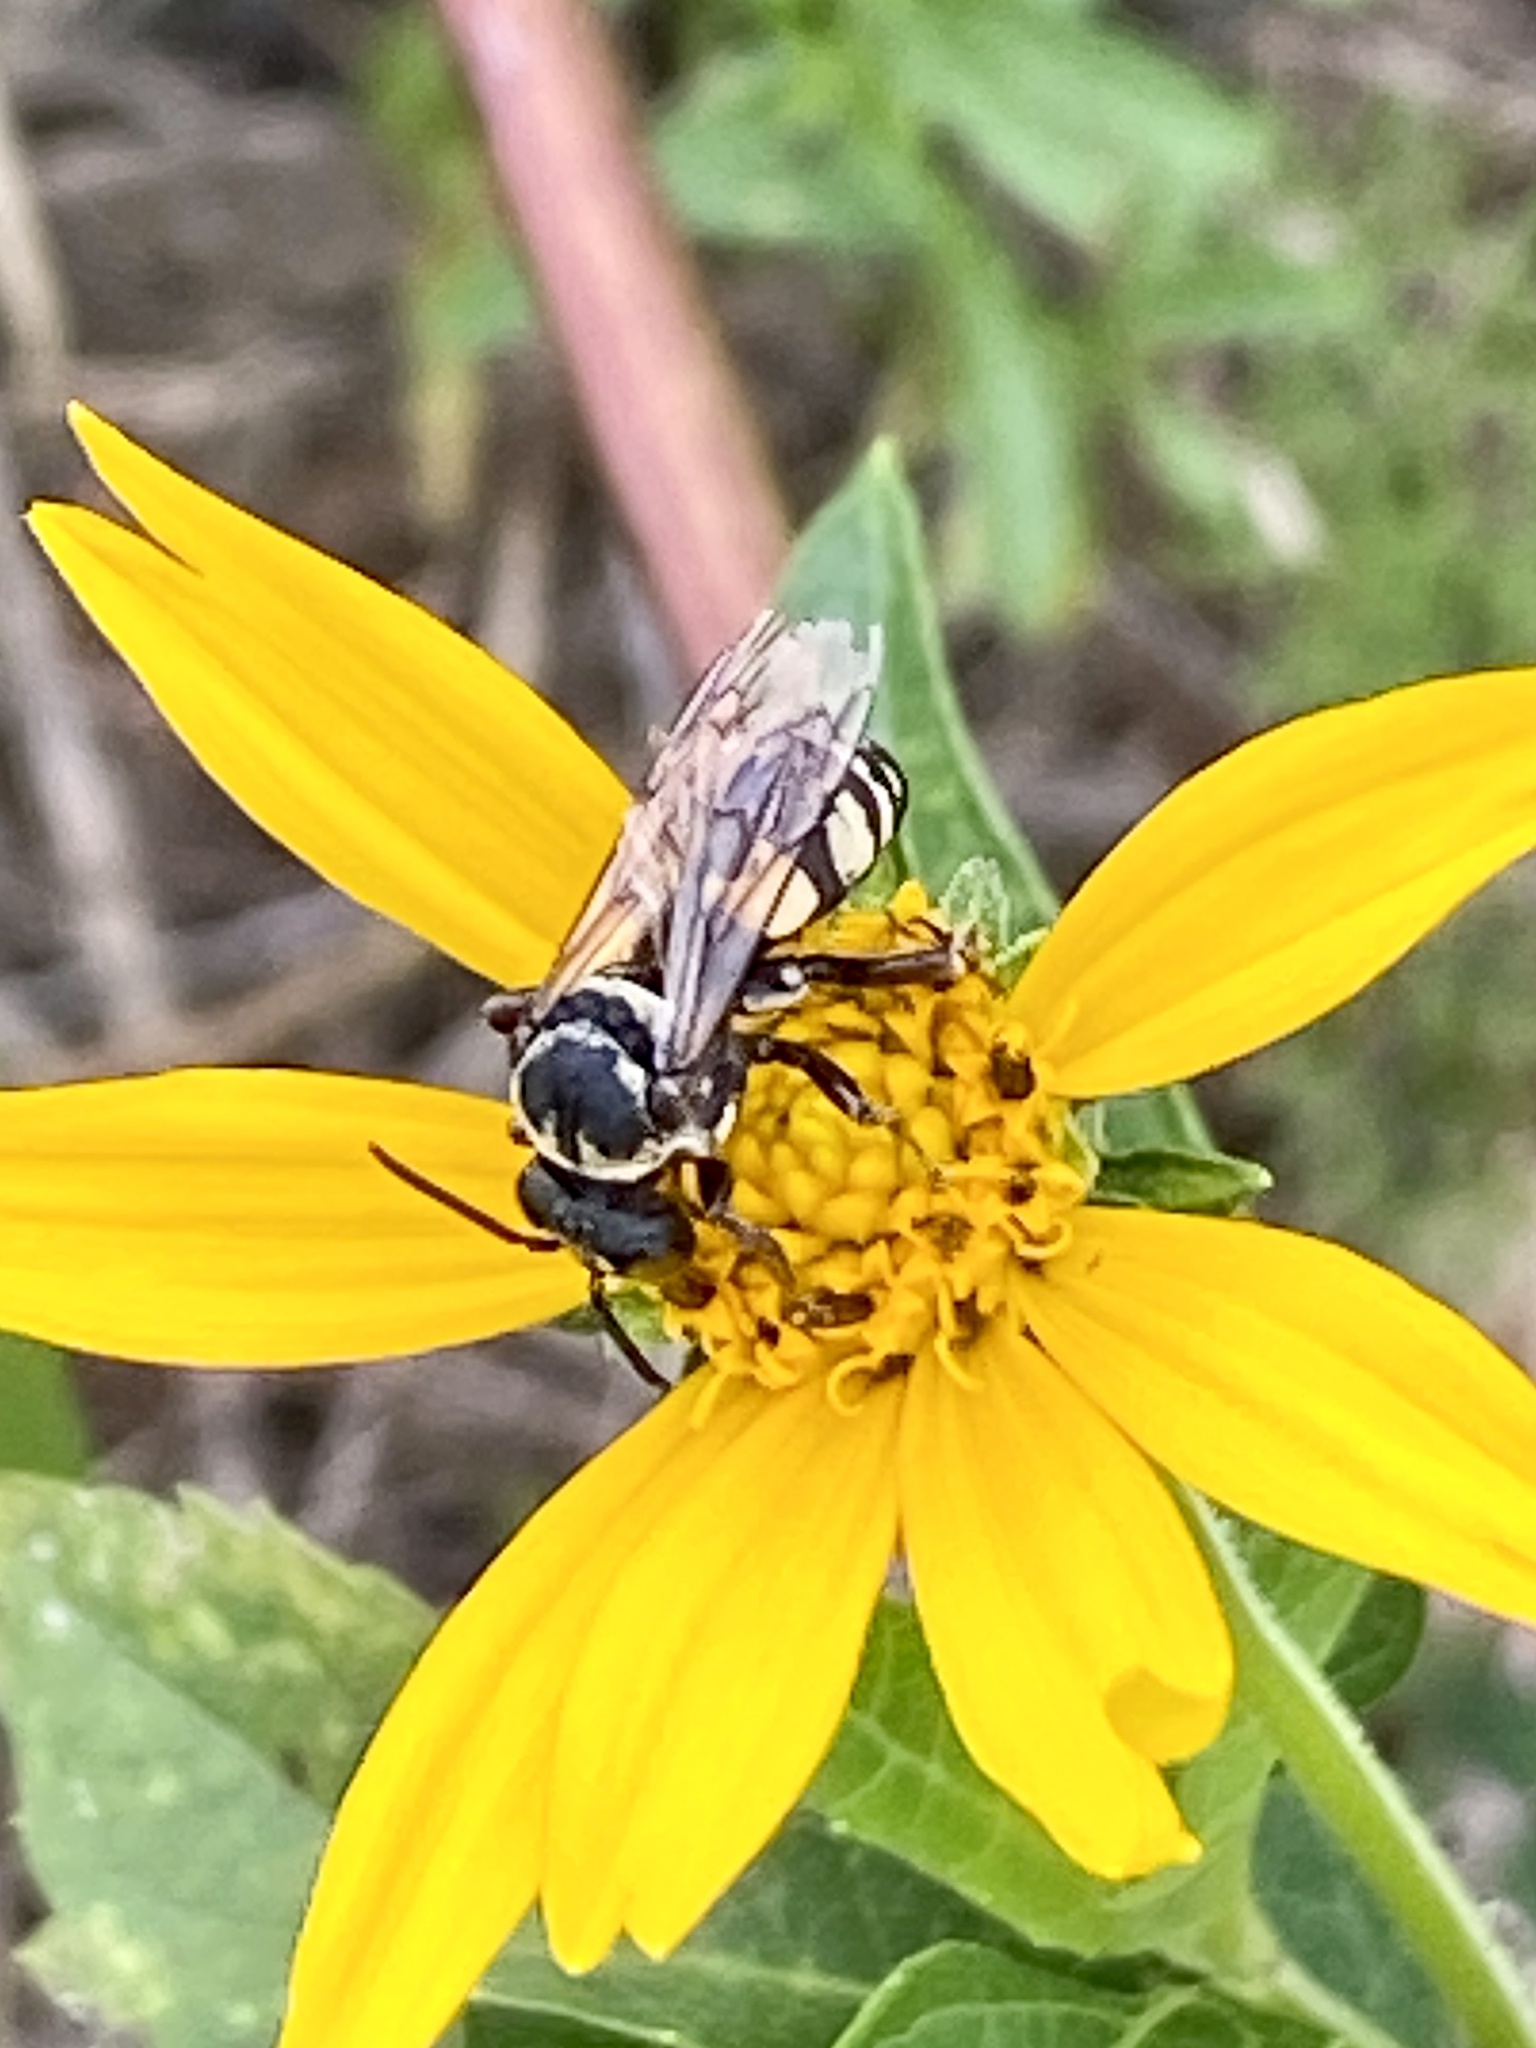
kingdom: Animalia
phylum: Arthropoda
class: Insecta
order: Hymenoptera
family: Apidae
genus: Triepeolus
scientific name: Triepeolus remigatus
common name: Squash longhorn-cuckoo
